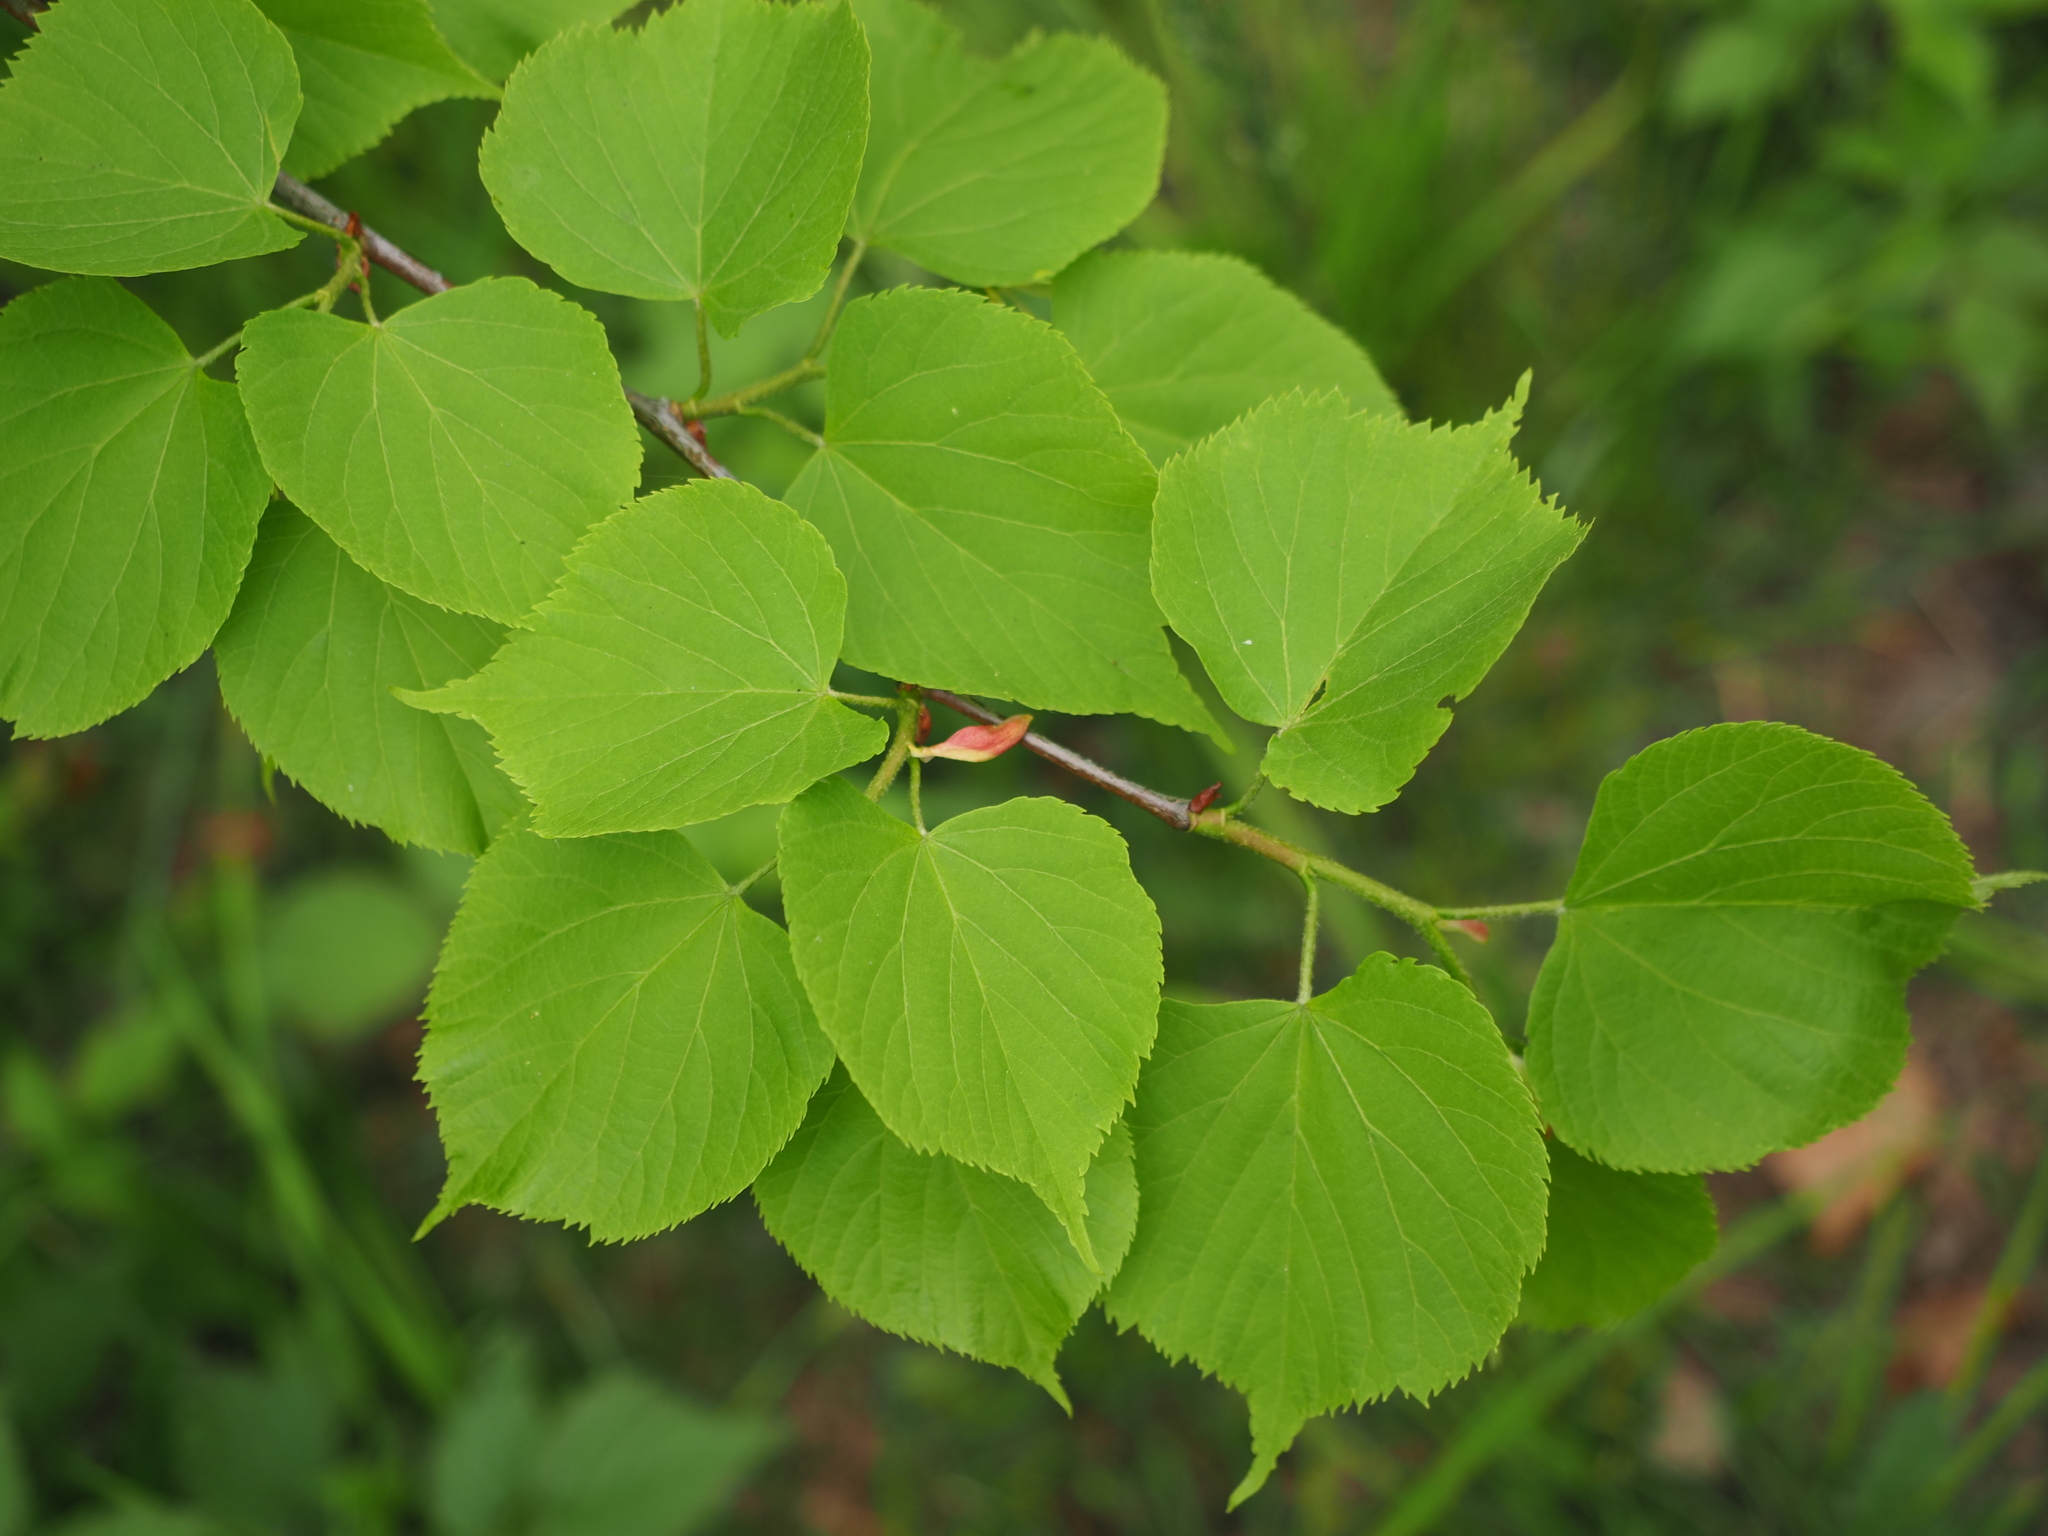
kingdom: Plantae
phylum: Tracheophyta
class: Magnoliopsida
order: Malvales
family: Malvaceae
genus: Tilia
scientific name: Tilia cordata
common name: Small-leaved lime
